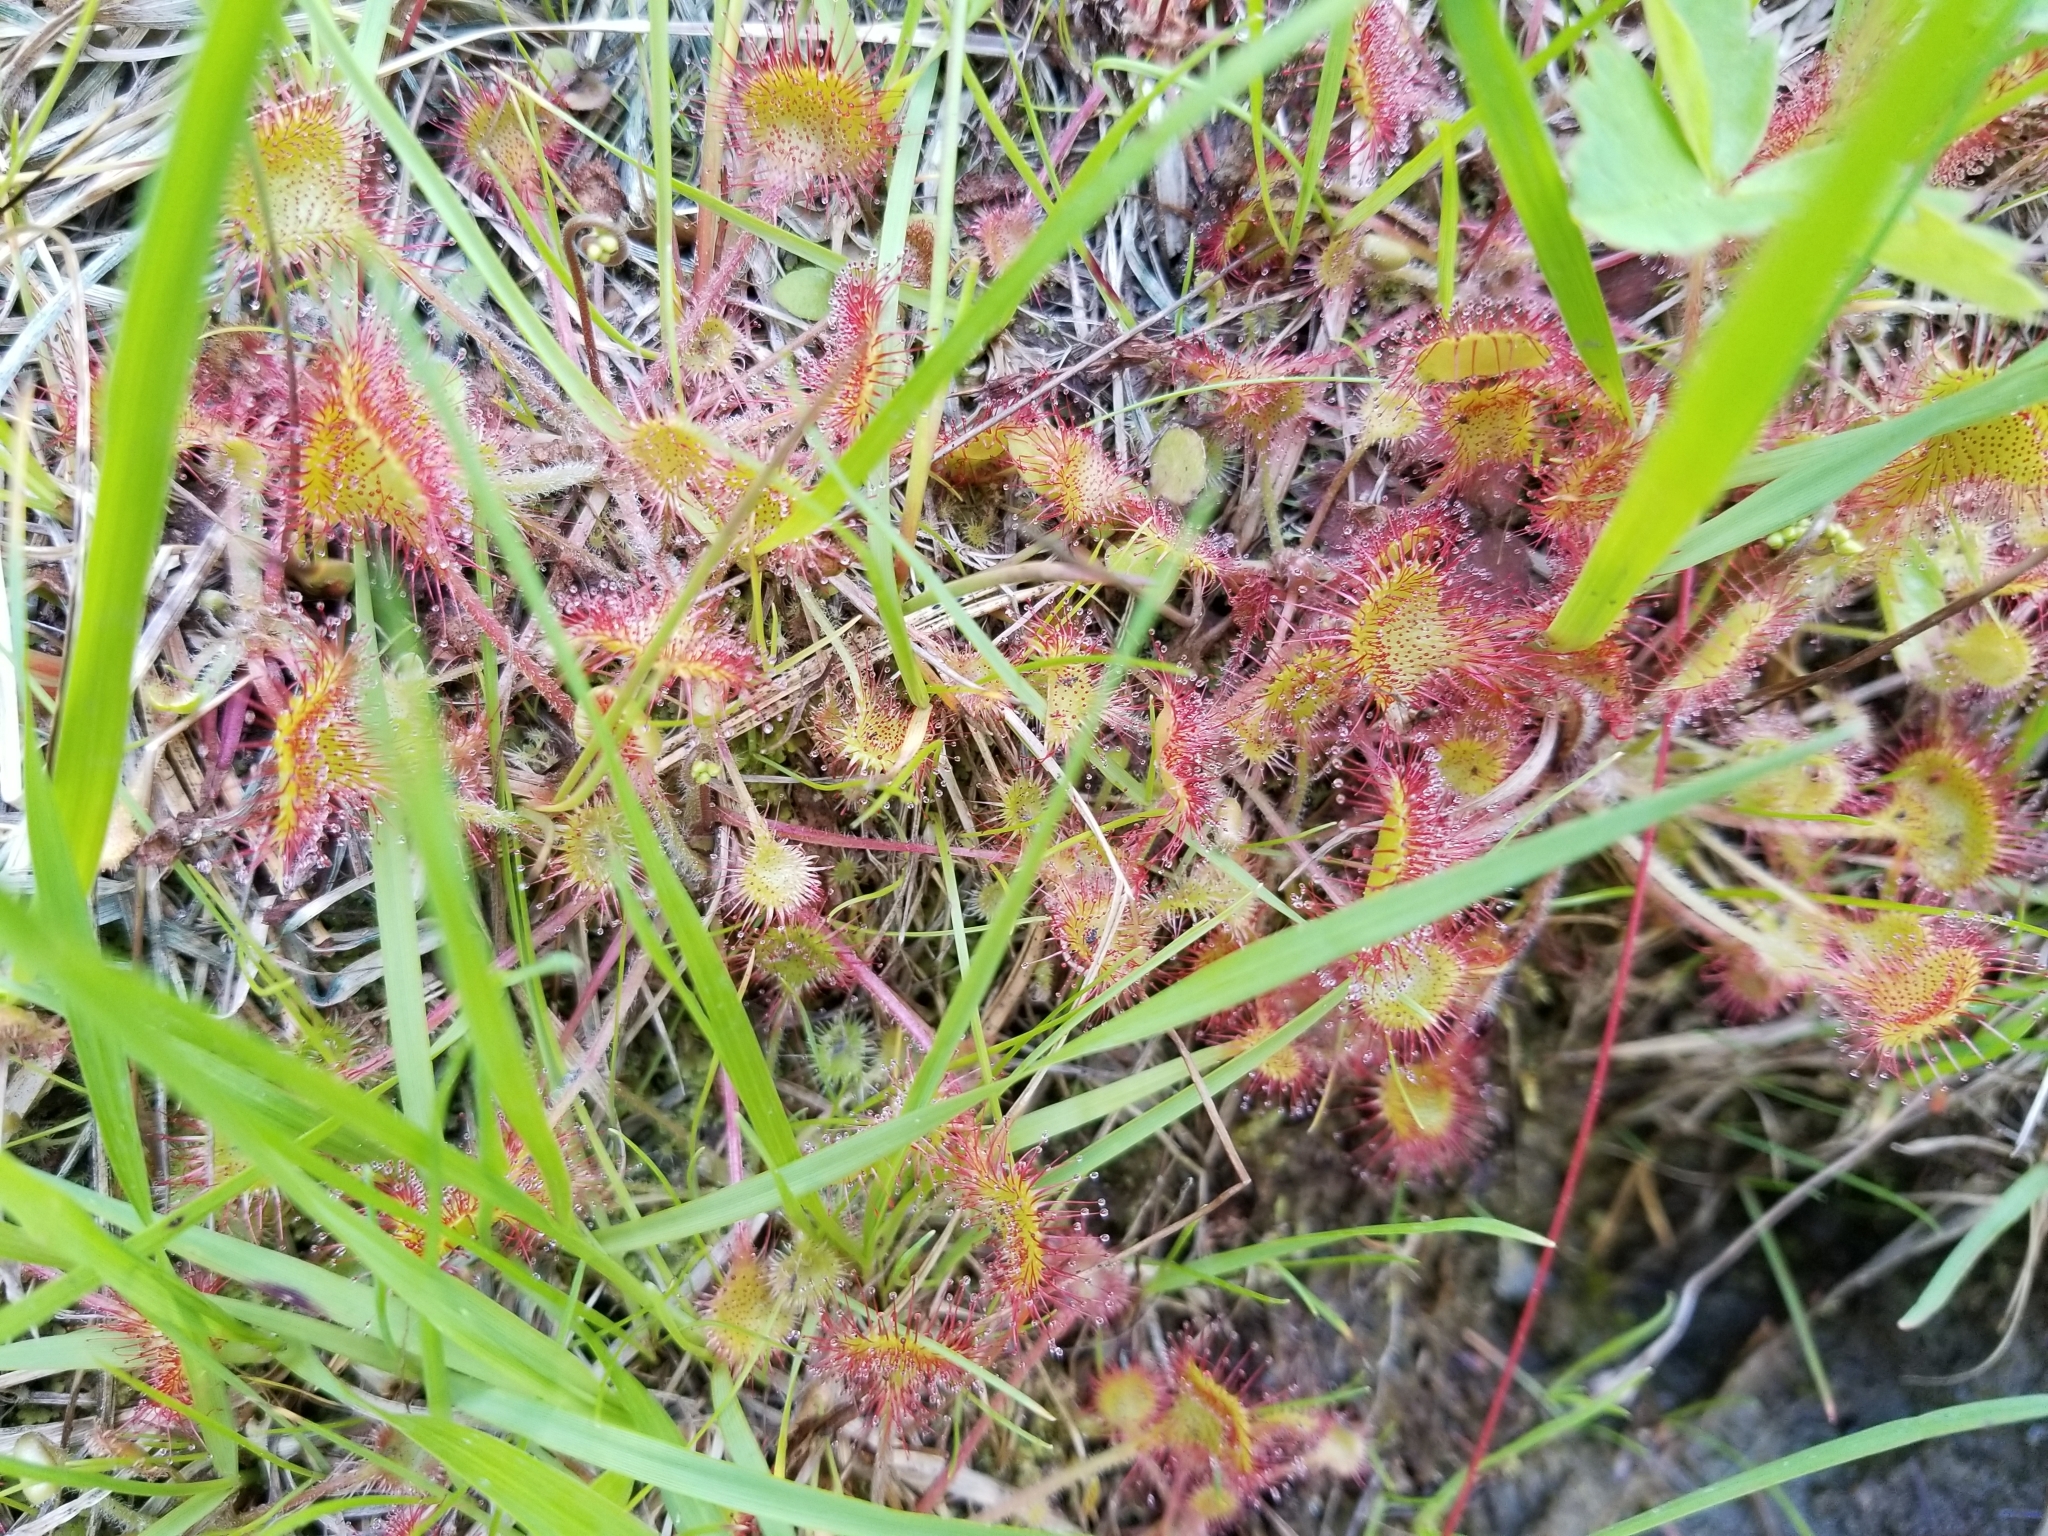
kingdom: Plantae
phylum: Tracheophyta
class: Magnoliopsida
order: Caryophyllales
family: Droseraceae
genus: Drosera
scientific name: Drosera rotundifolia
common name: Round-leaved sundew
